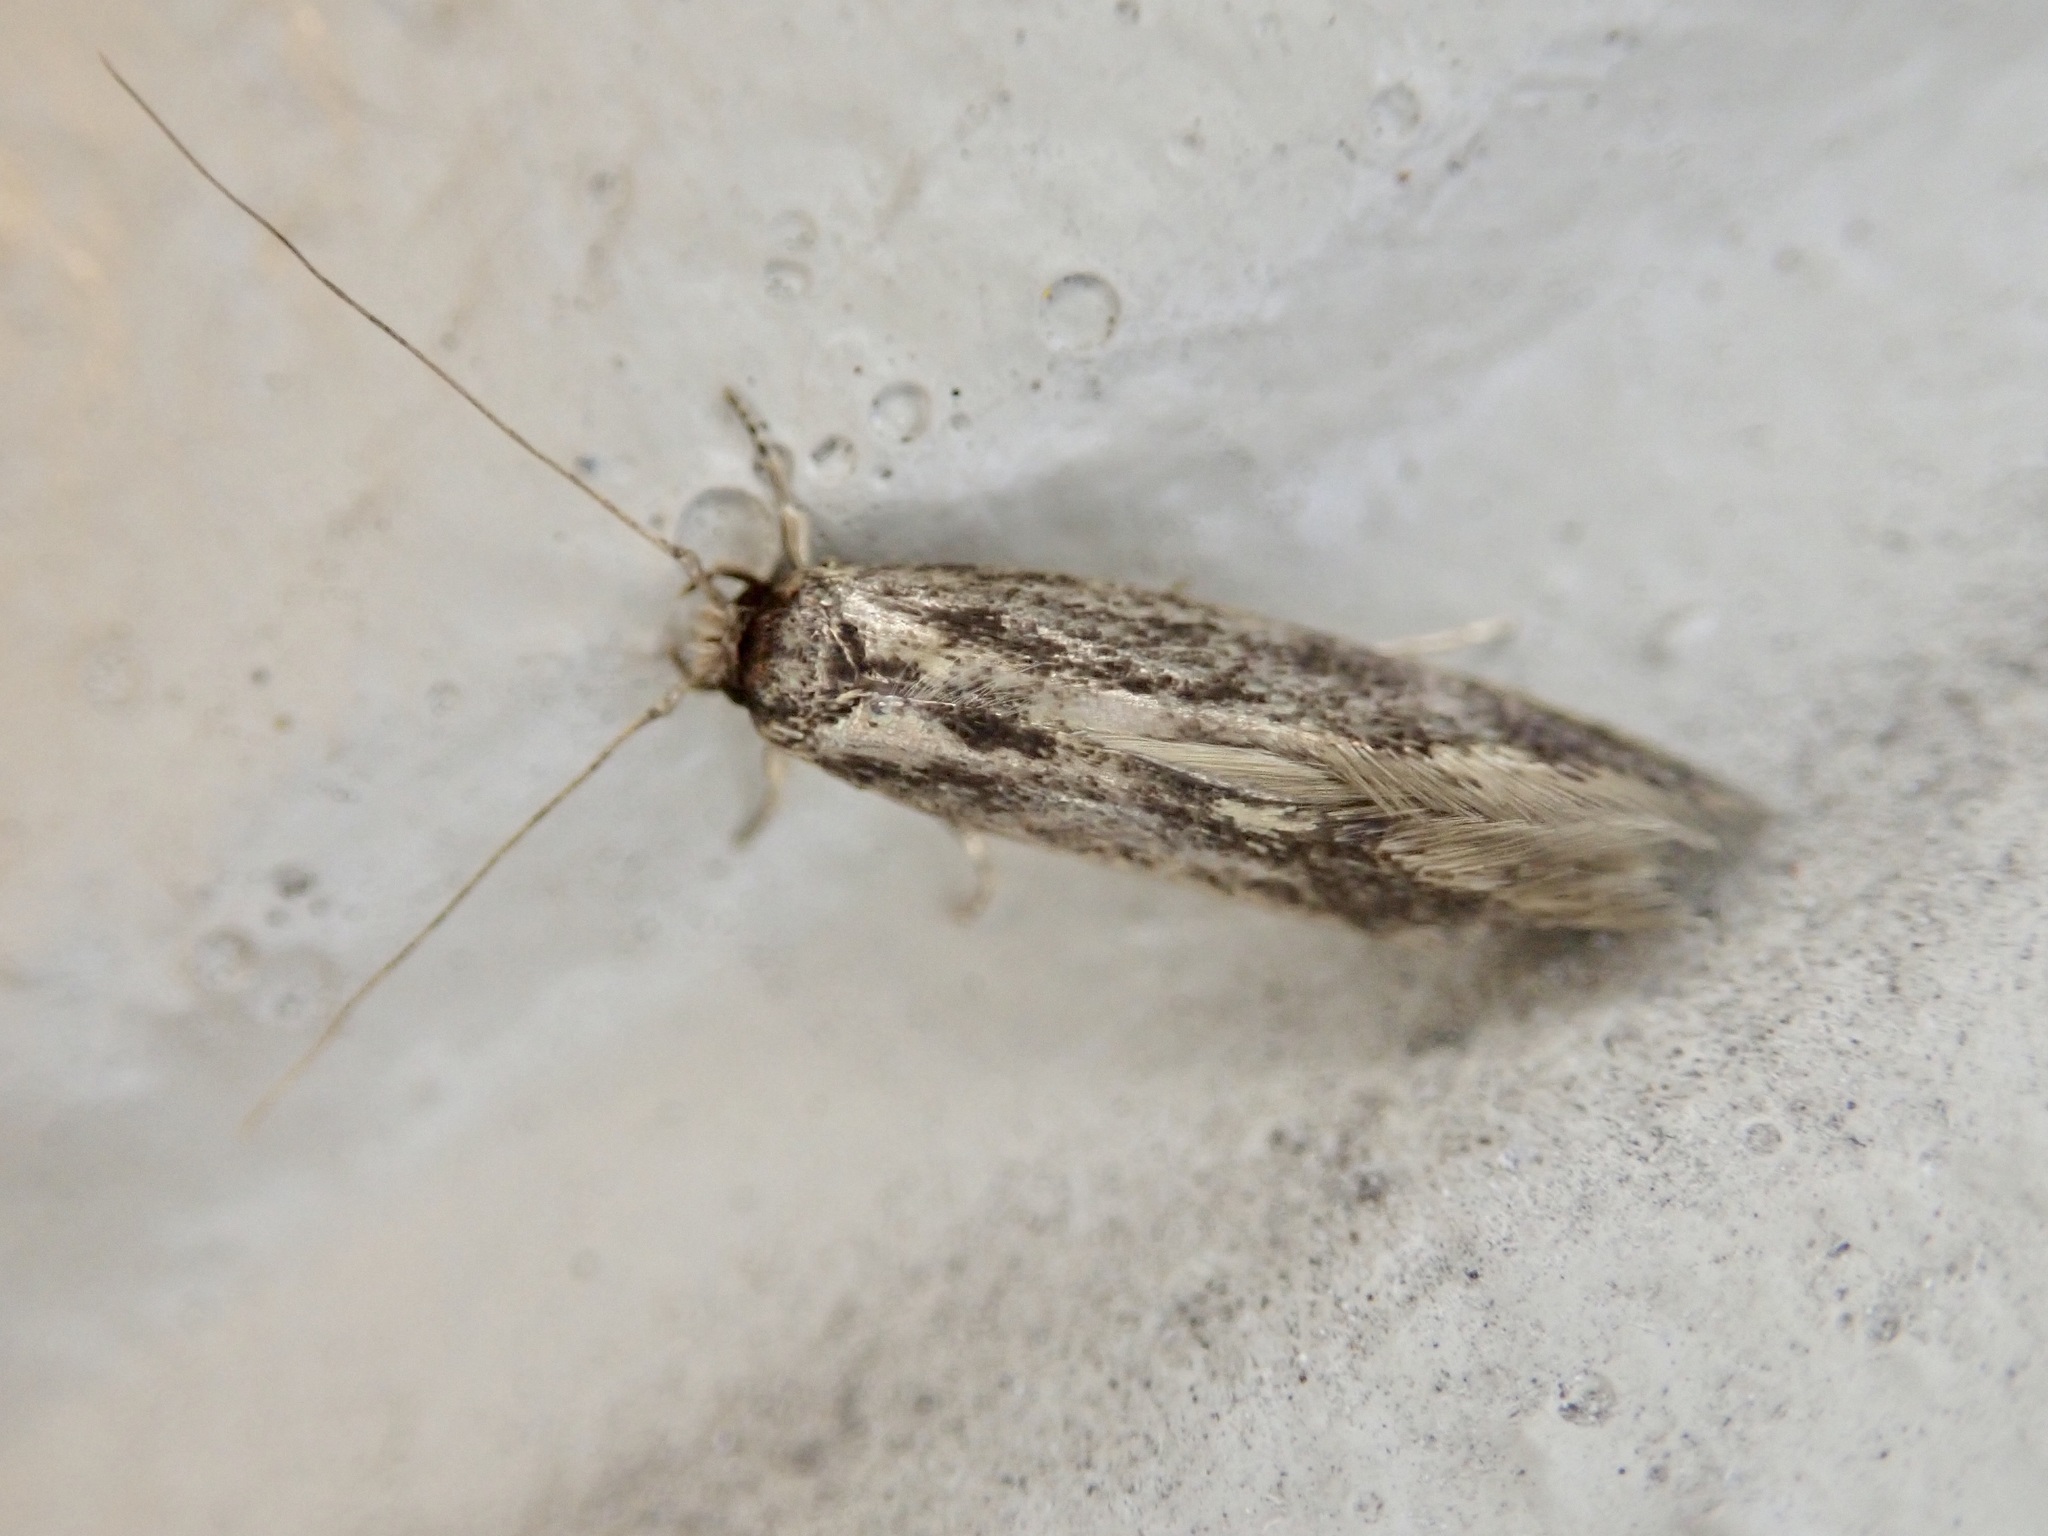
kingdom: Animalia
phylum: Arthropoda
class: Insecta
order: Lepidoptera
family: Tineidae
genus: Opogona
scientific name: Opogona omoscopa
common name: Moth
